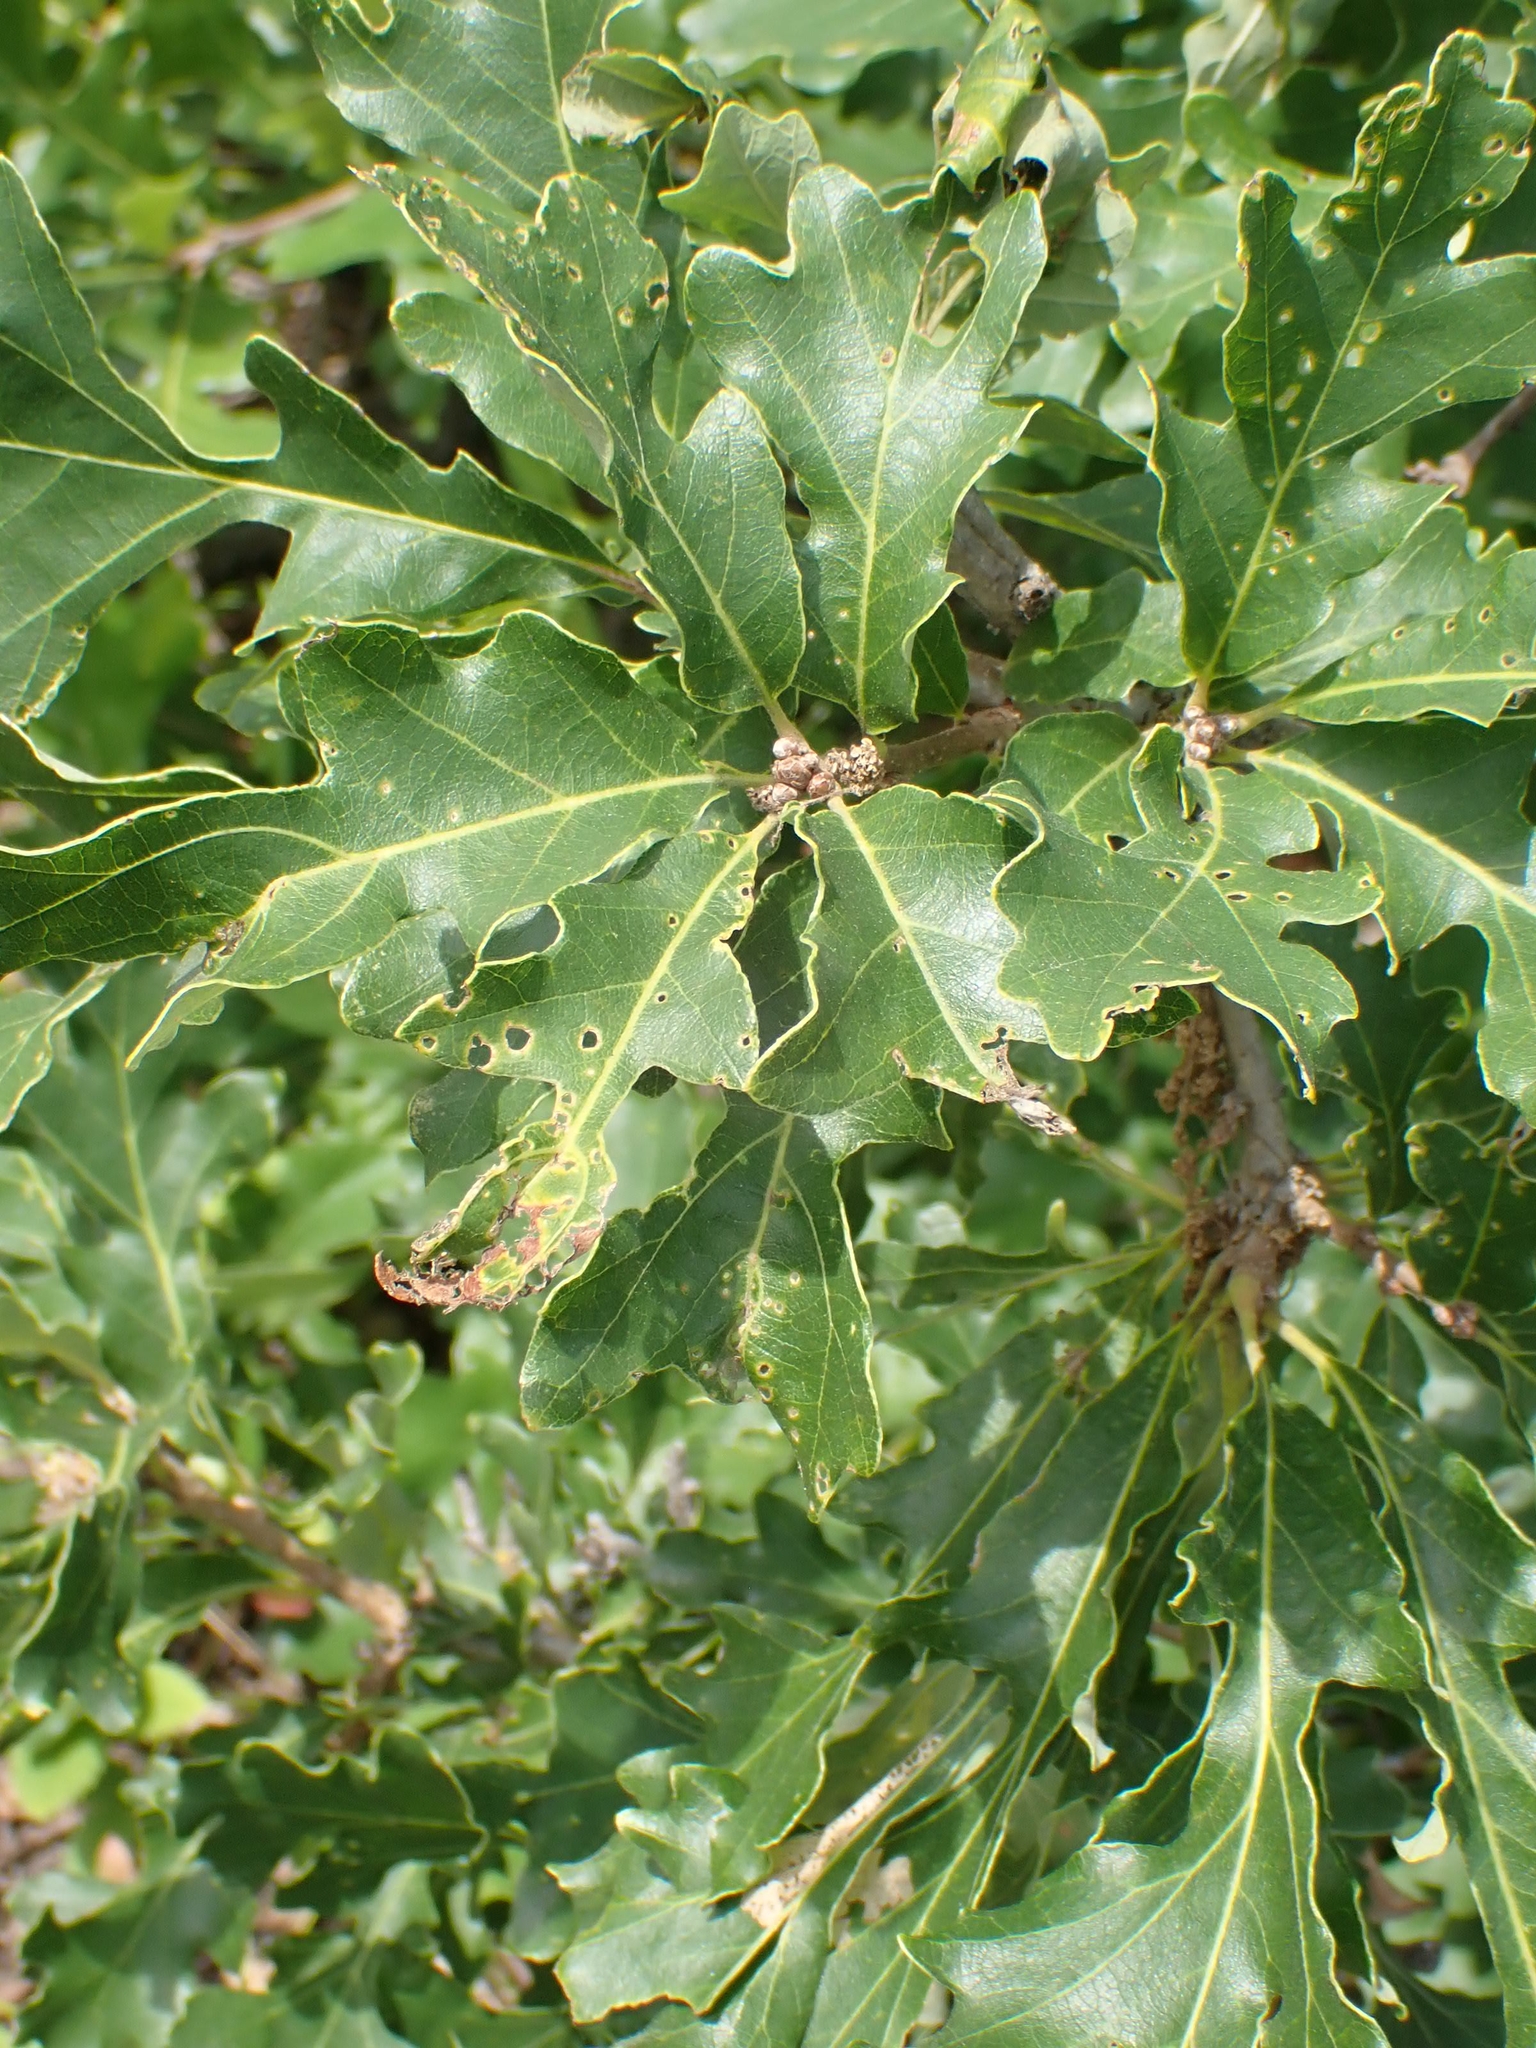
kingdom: Plantae
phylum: Tracheophyta
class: Magnoliopsida
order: Fagales
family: Fagaceae
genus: Quercus
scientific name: Quercus macrocarpa
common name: Bur oak
